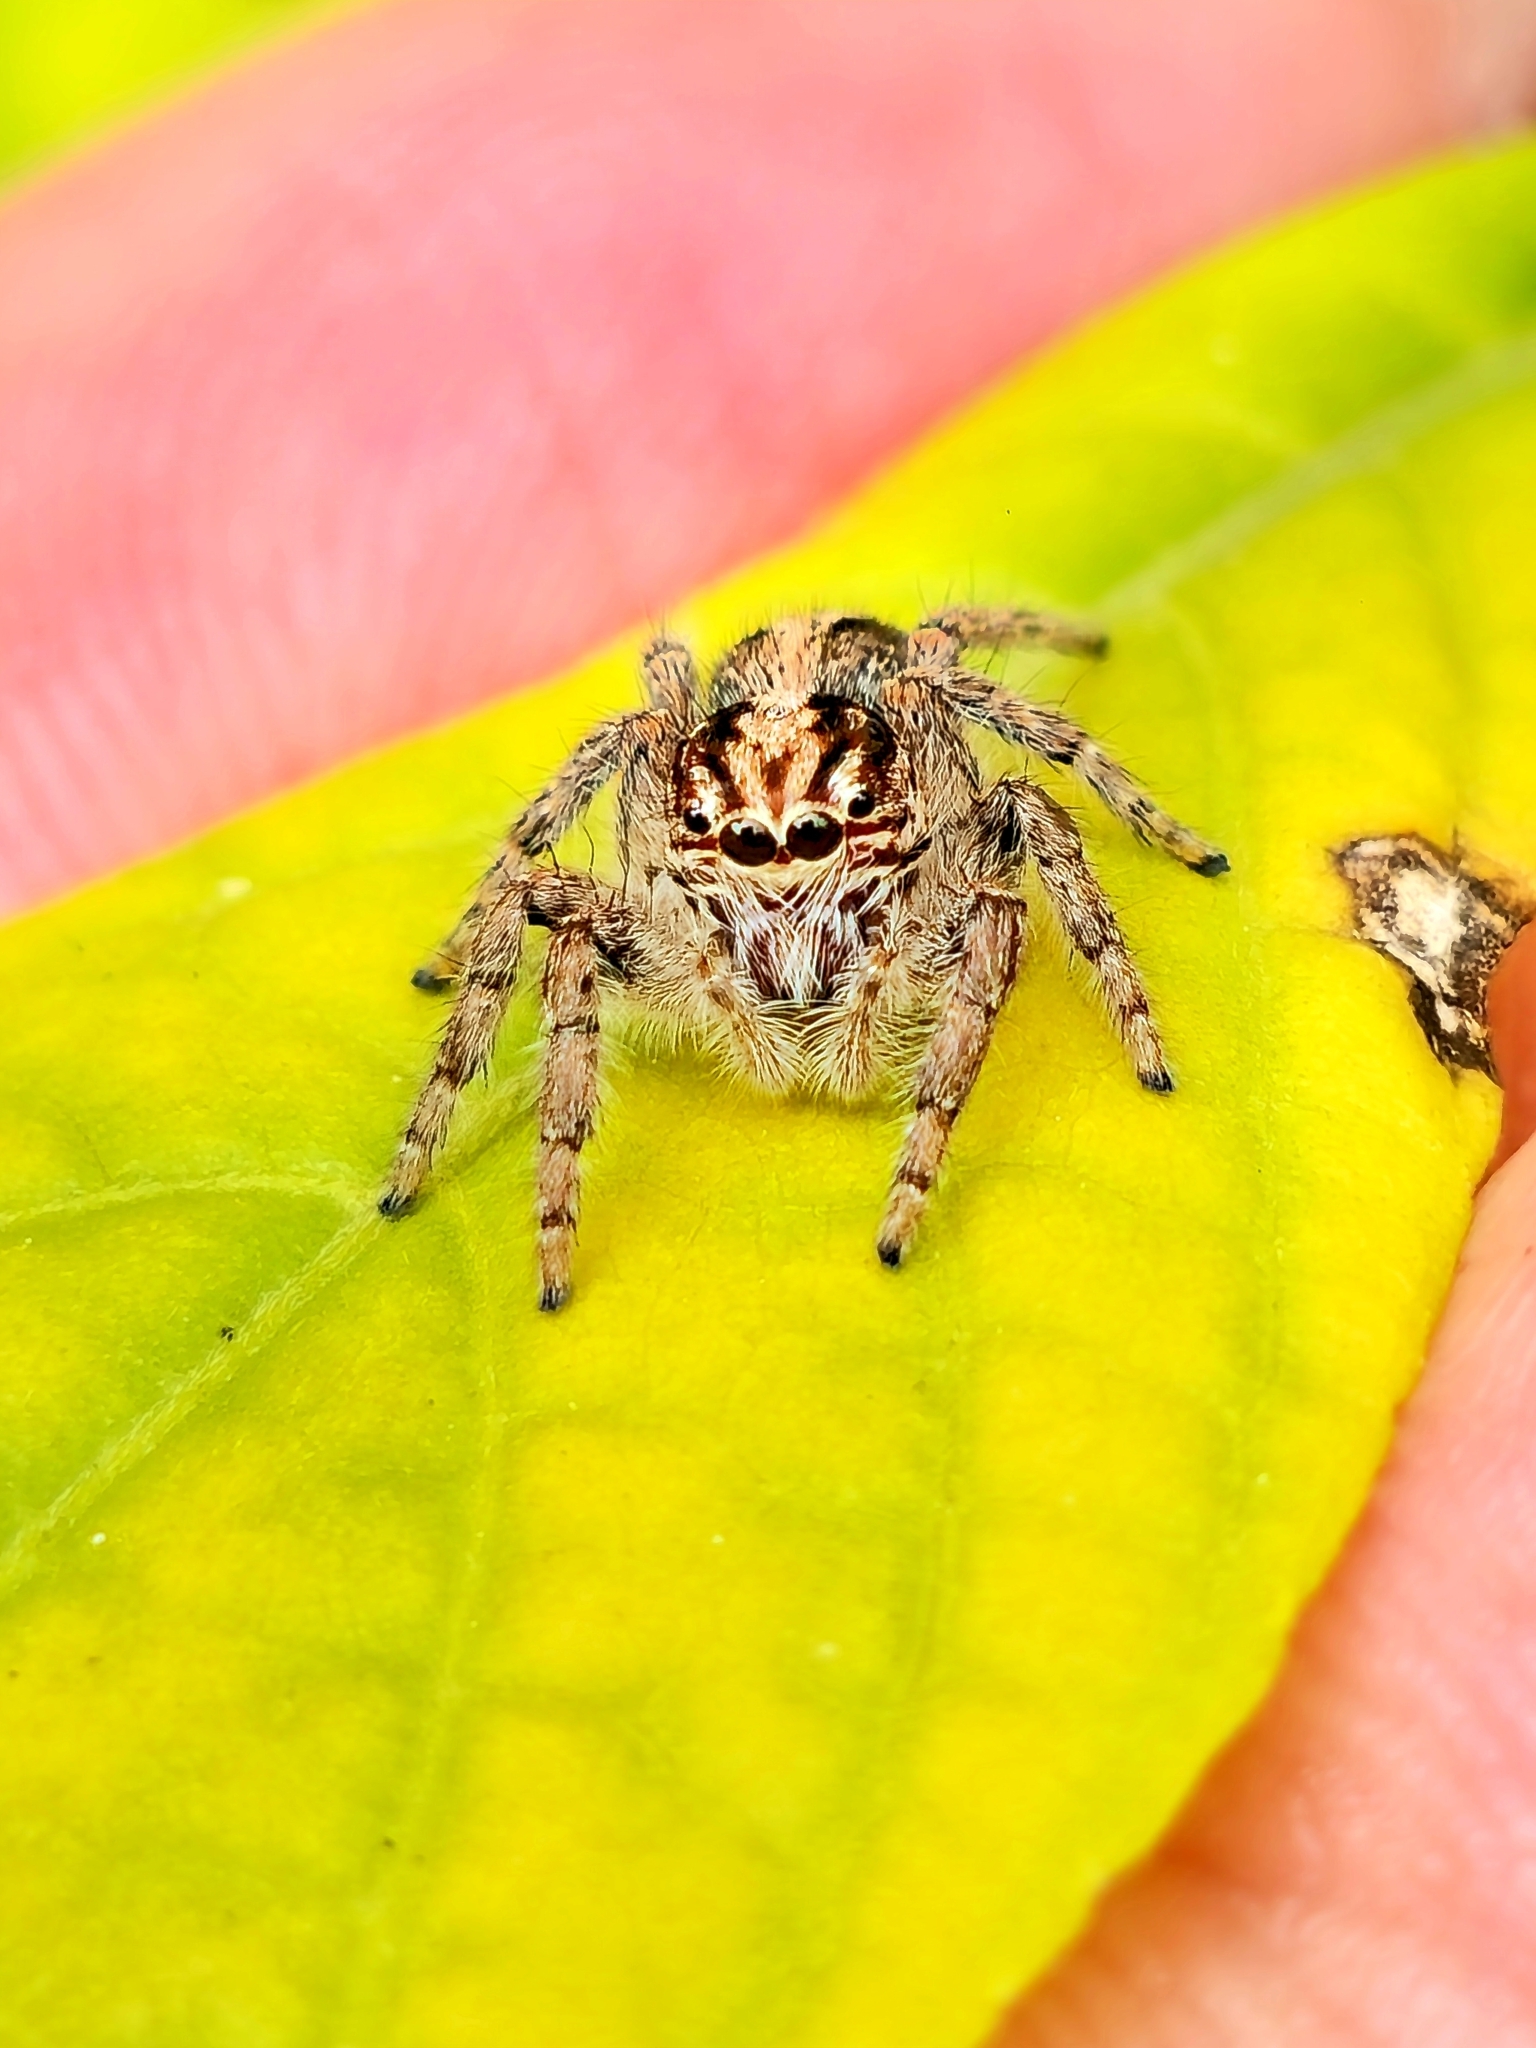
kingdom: Animalia
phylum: Arthropoda
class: Arachnida
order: Araneae
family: Salticidae
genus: Megafreya
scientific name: Megafreya sutrix
